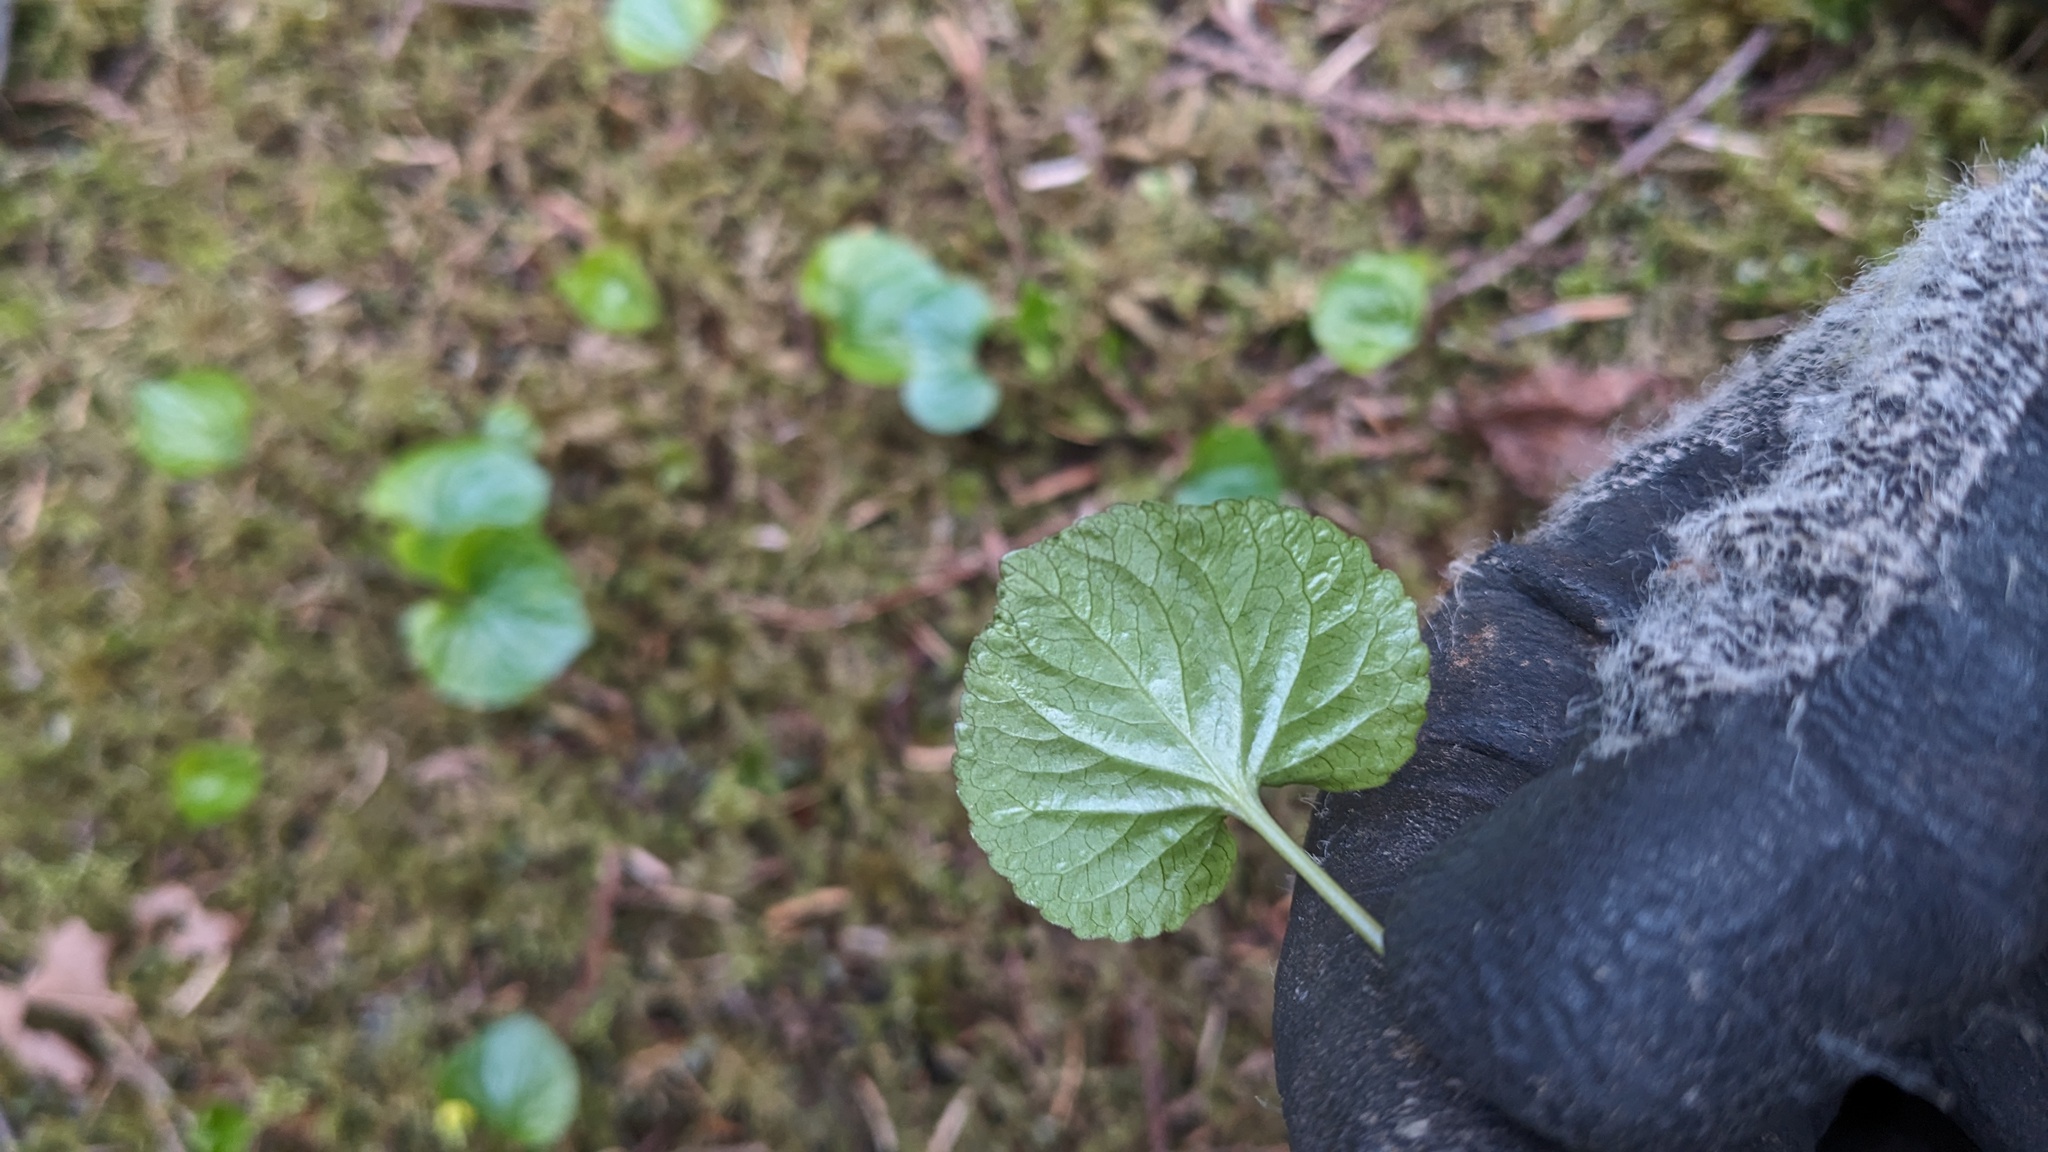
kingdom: Plantae
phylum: Tracheophyta
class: Magnoliopsida
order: Malpighiales
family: Violaceae
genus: Viola
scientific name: Viola glabella
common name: Stream violet
